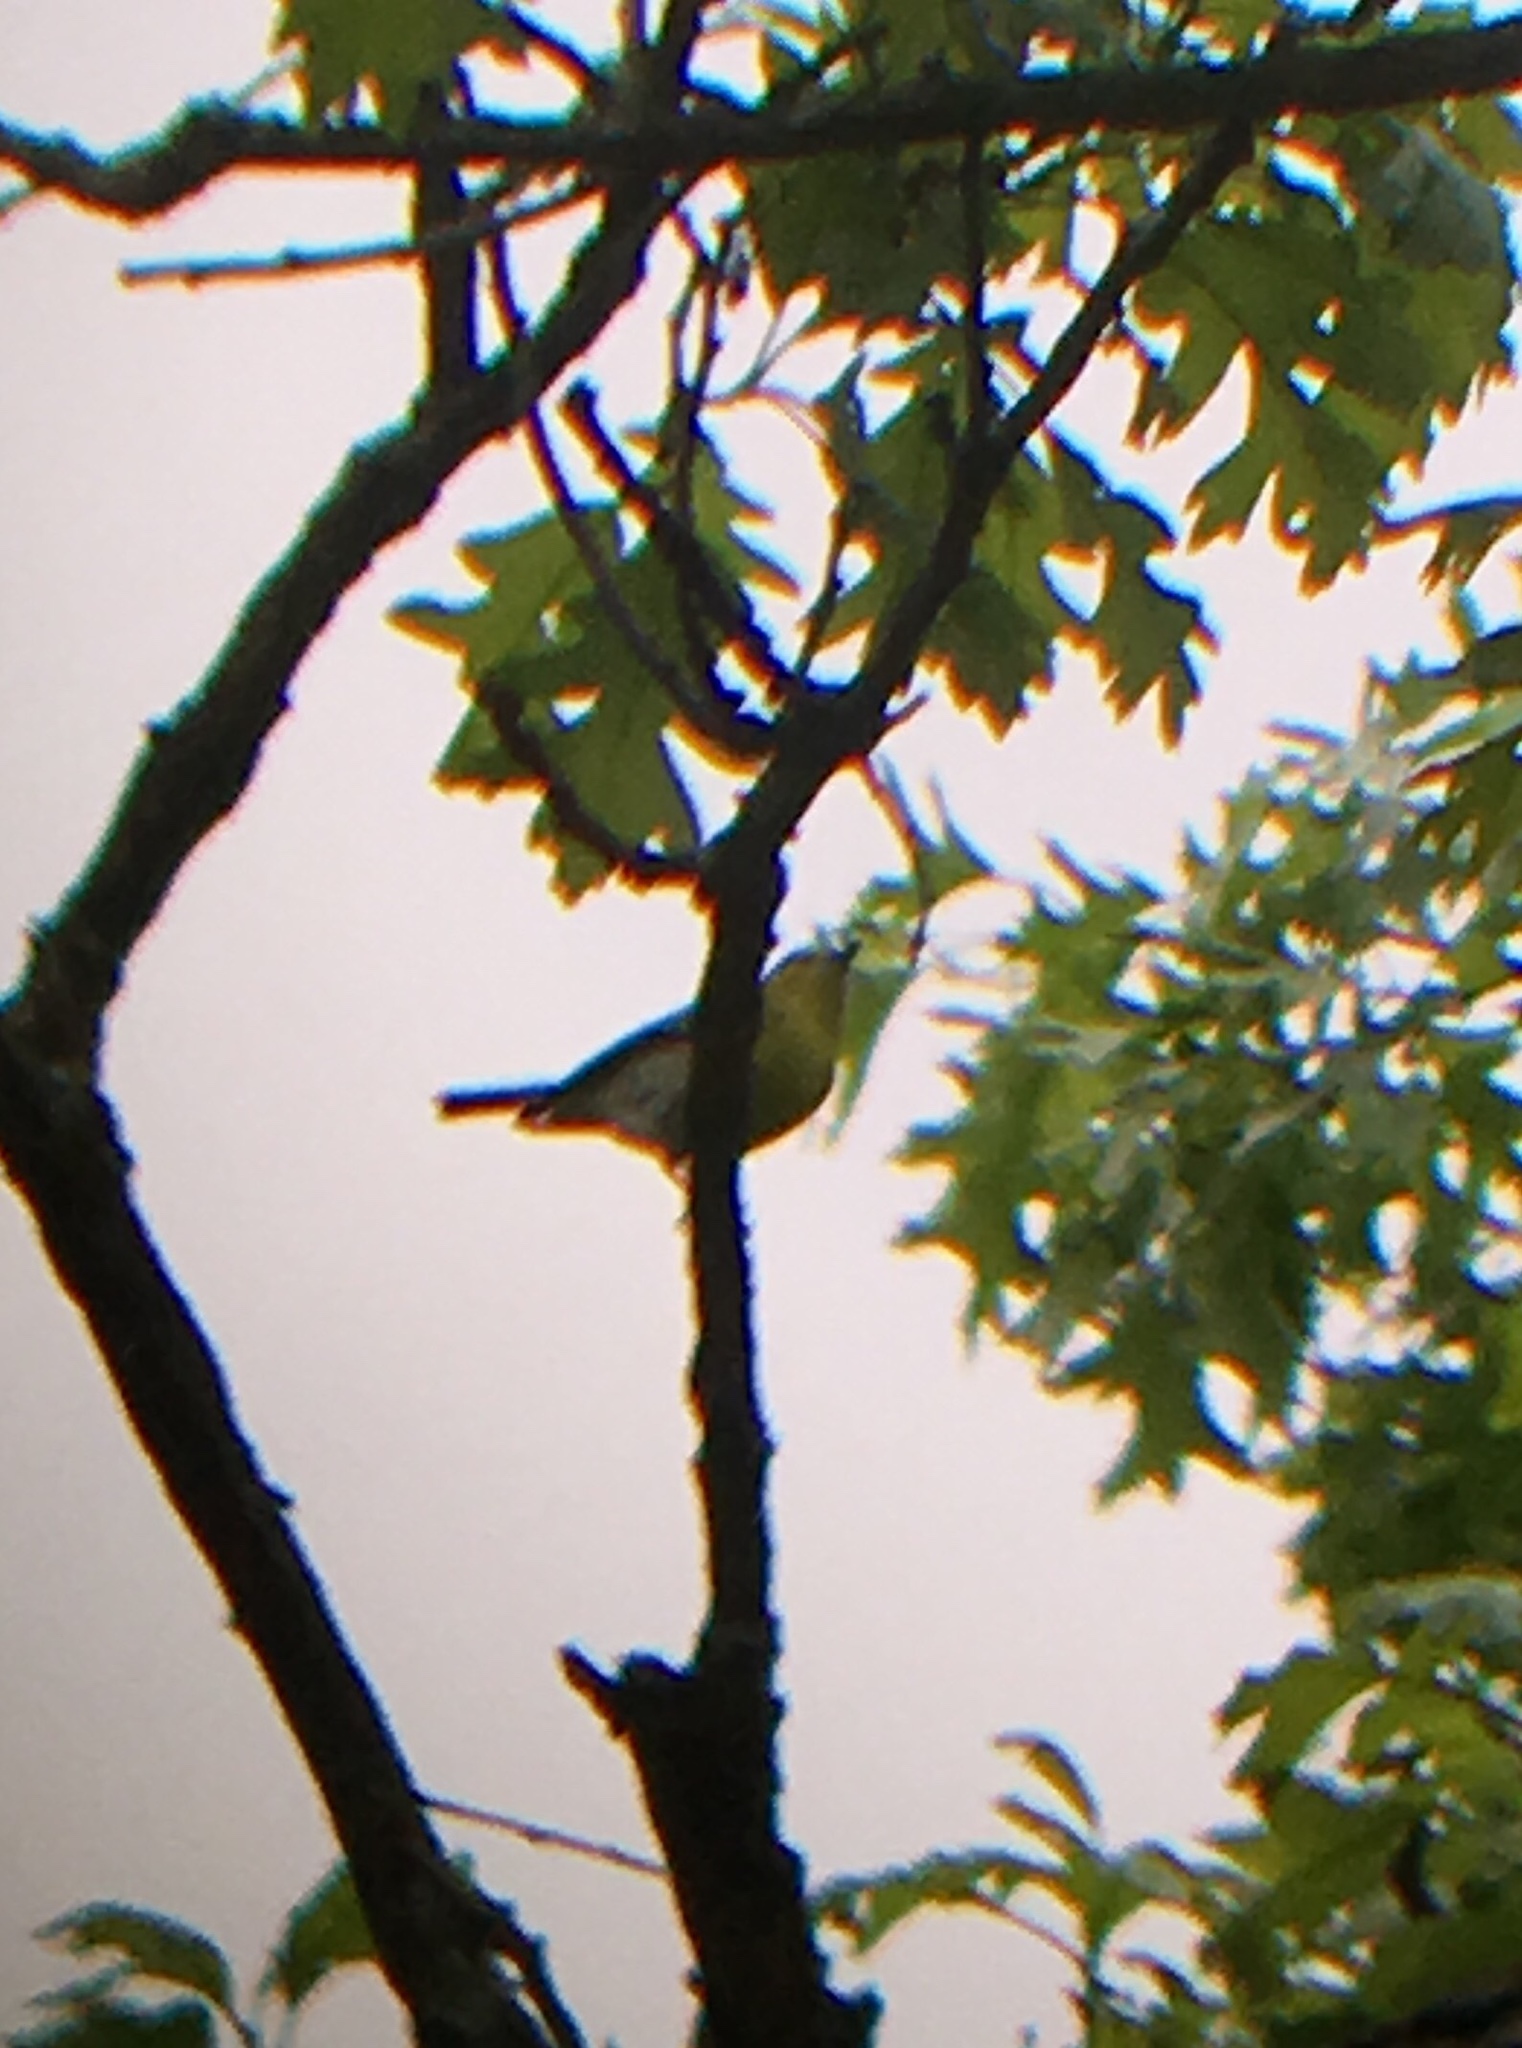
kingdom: Animalia
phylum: Chordata
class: Aves
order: Passeriformes
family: Vireonidae
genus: Vireo
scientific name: Vireo flavifrons
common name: Yellow-throated vireo
